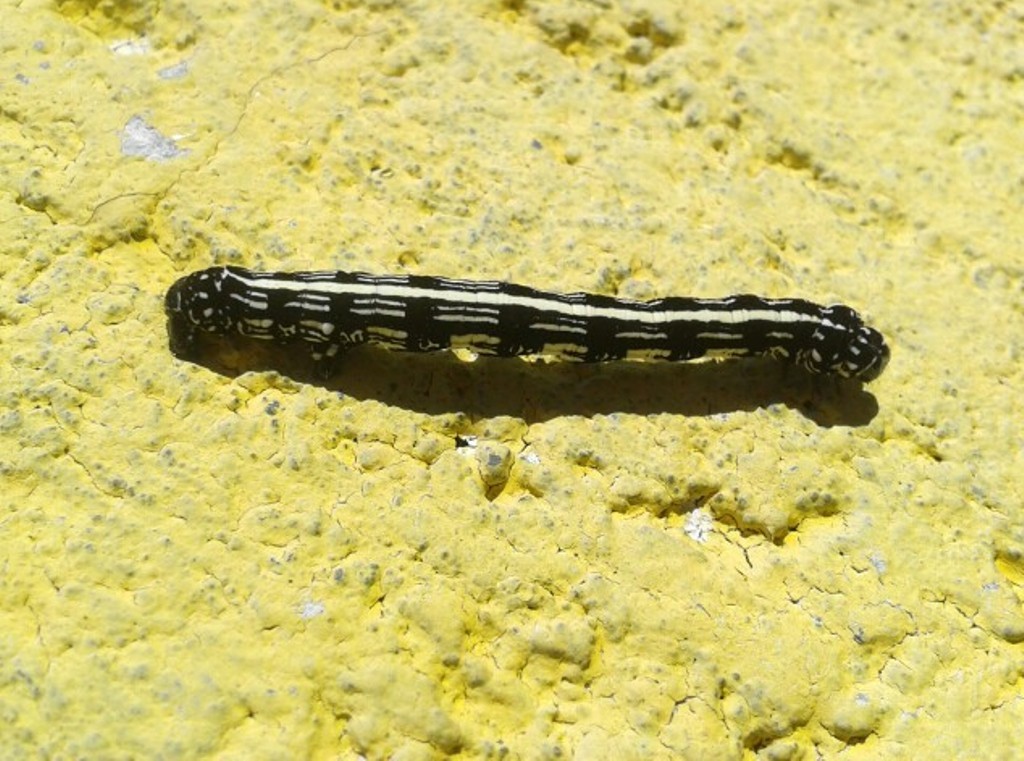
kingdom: Animalia
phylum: Arthropoda
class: Insecta
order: Lepidoptera
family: Geometridae
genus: Acronyctodes
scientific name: Acronyctodes mexicanaria
